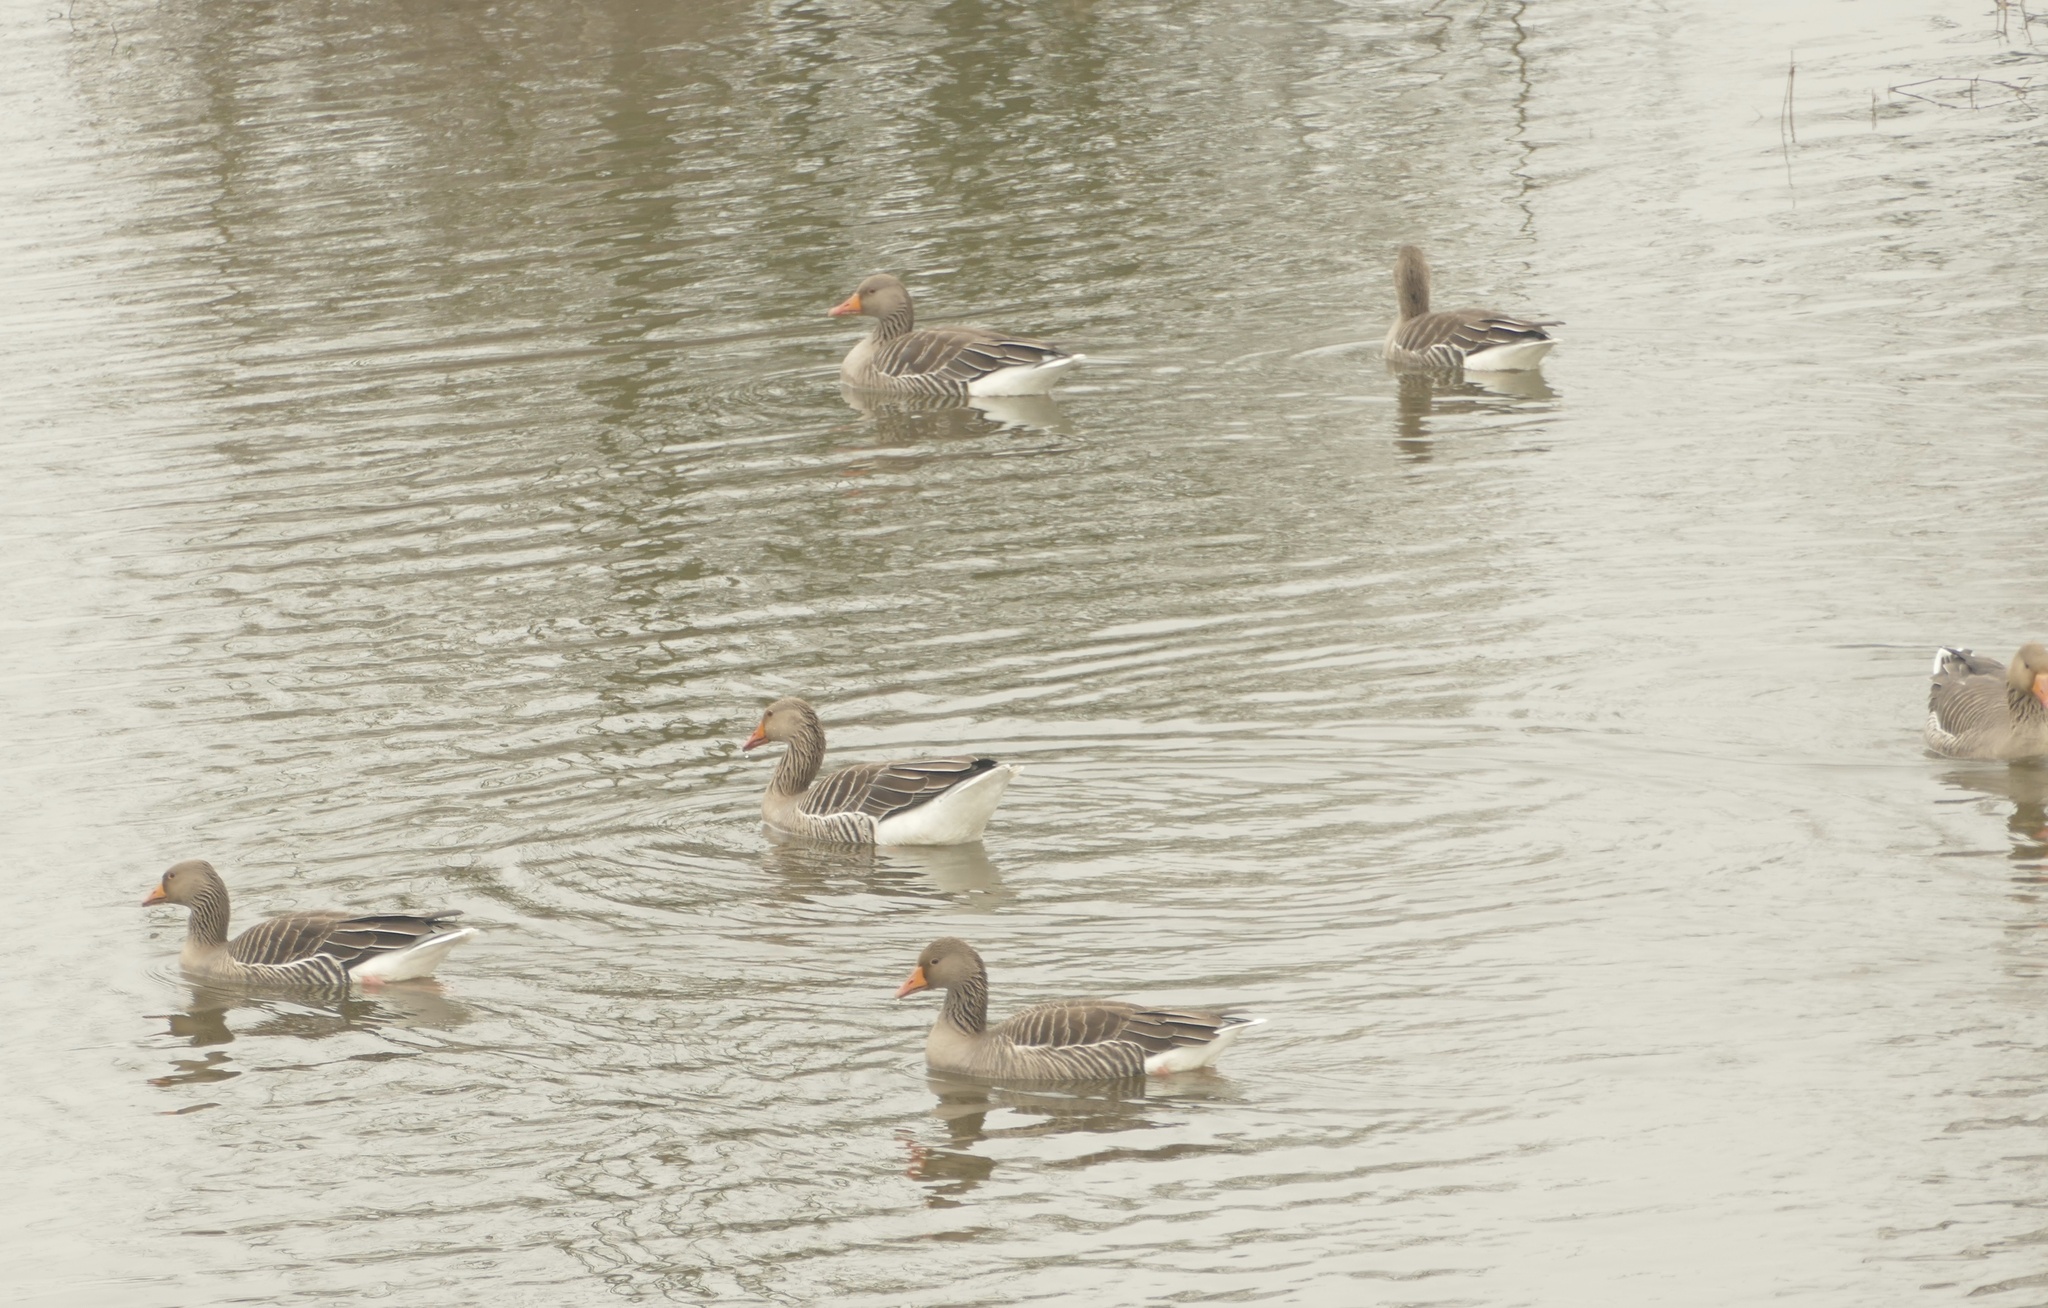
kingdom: Animalia
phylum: Chordata
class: Aves
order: Anseriformes
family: Anatidae
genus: Anser
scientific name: Anser anser
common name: Greylag goose
